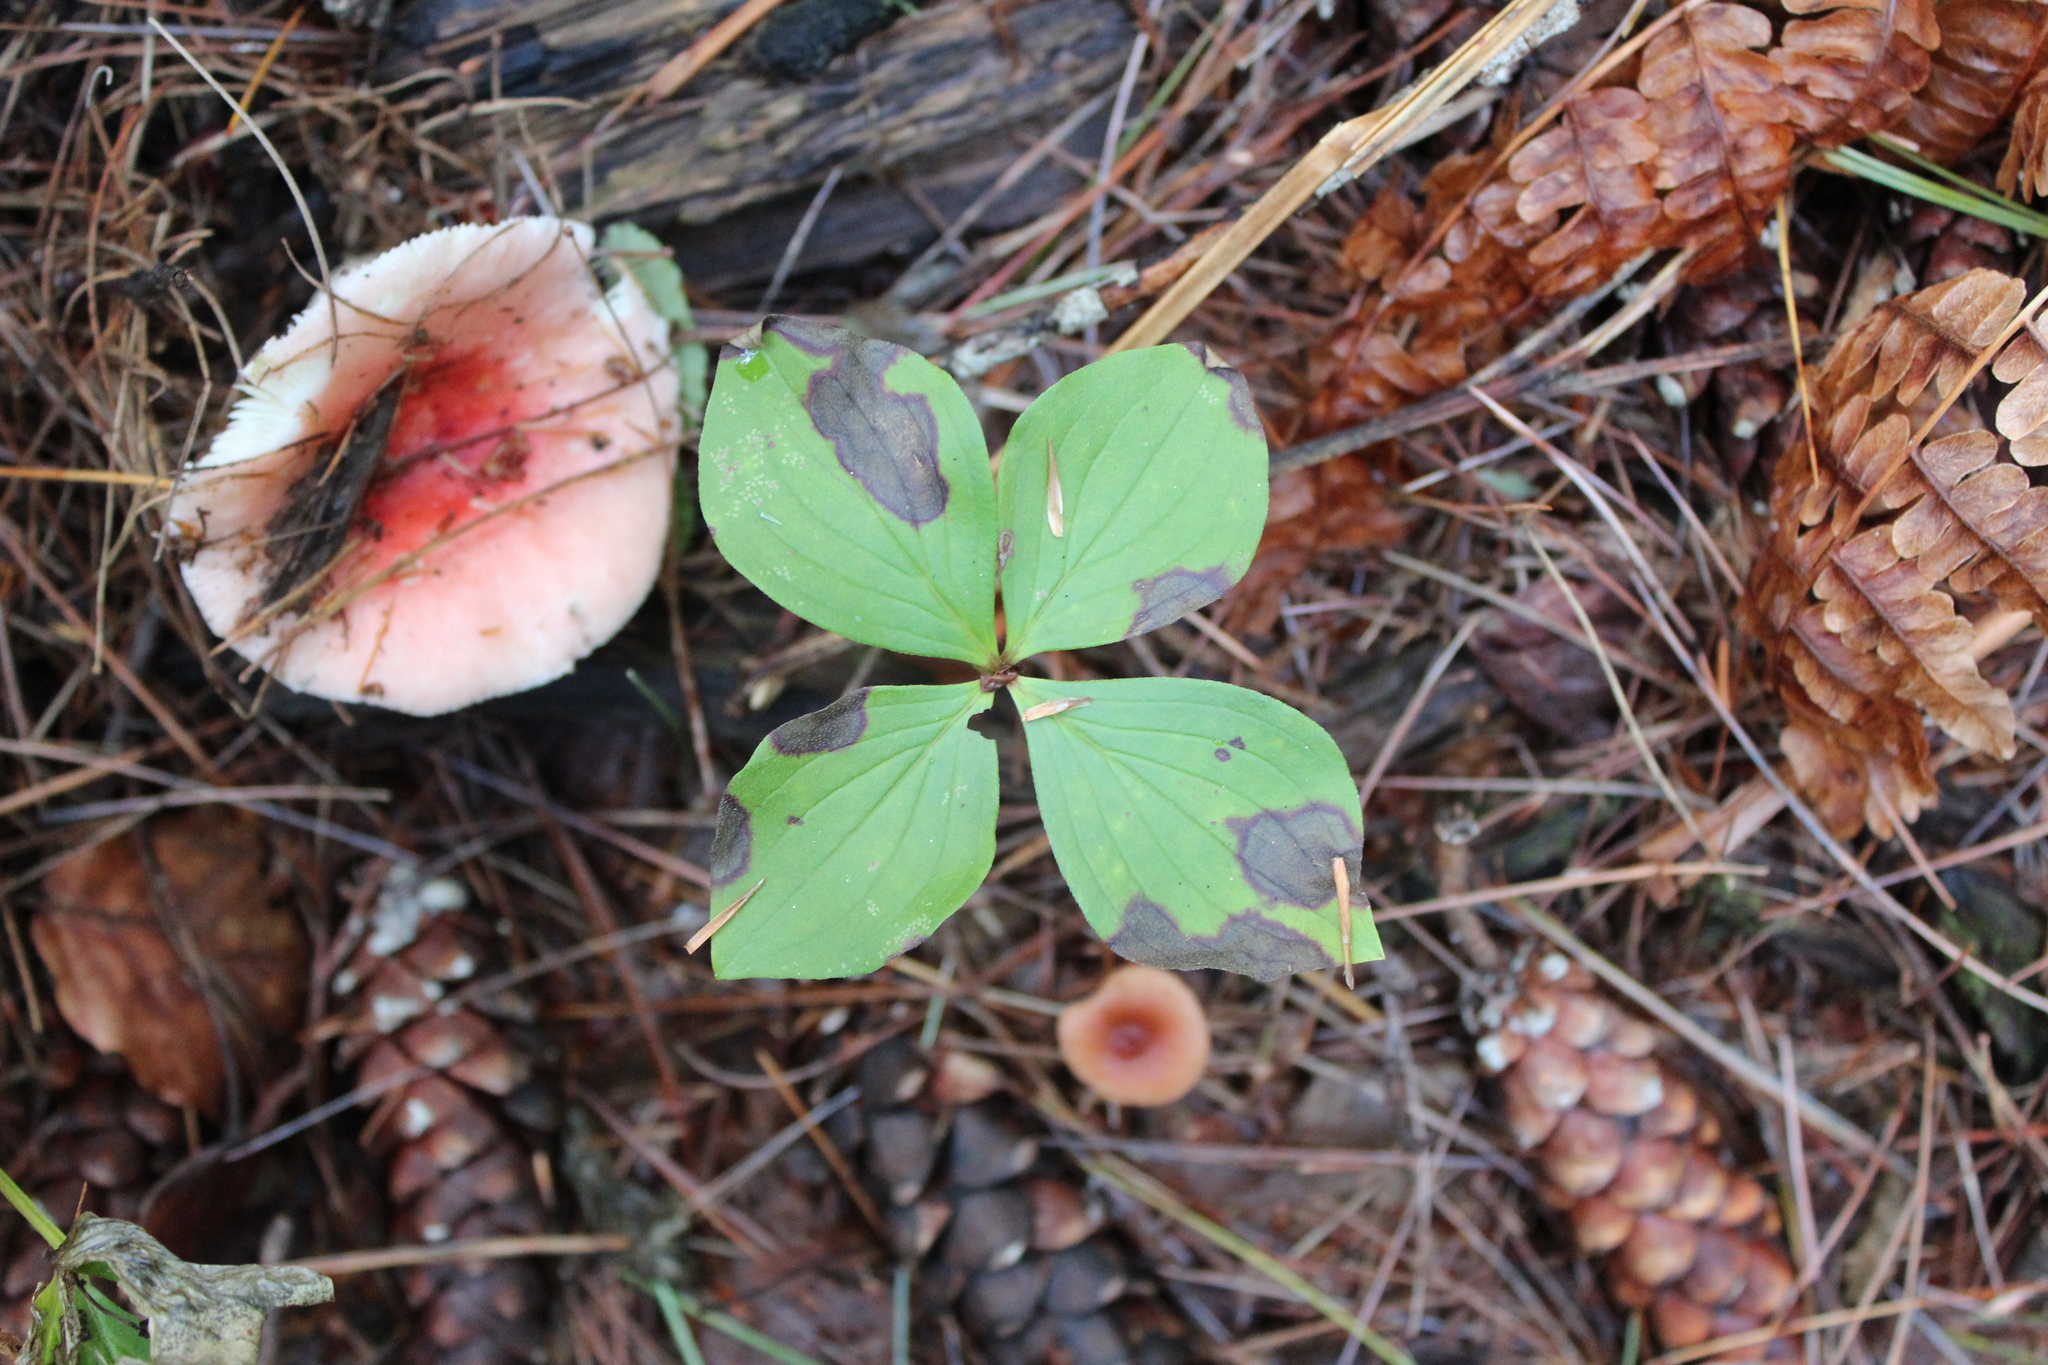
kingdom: Plantae
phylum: Tracheophyta
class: Magnoliopsida
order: Cornales
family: Cornaceae
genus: Cornus
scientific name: Cornus canadensis
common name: Creeping dogwood
